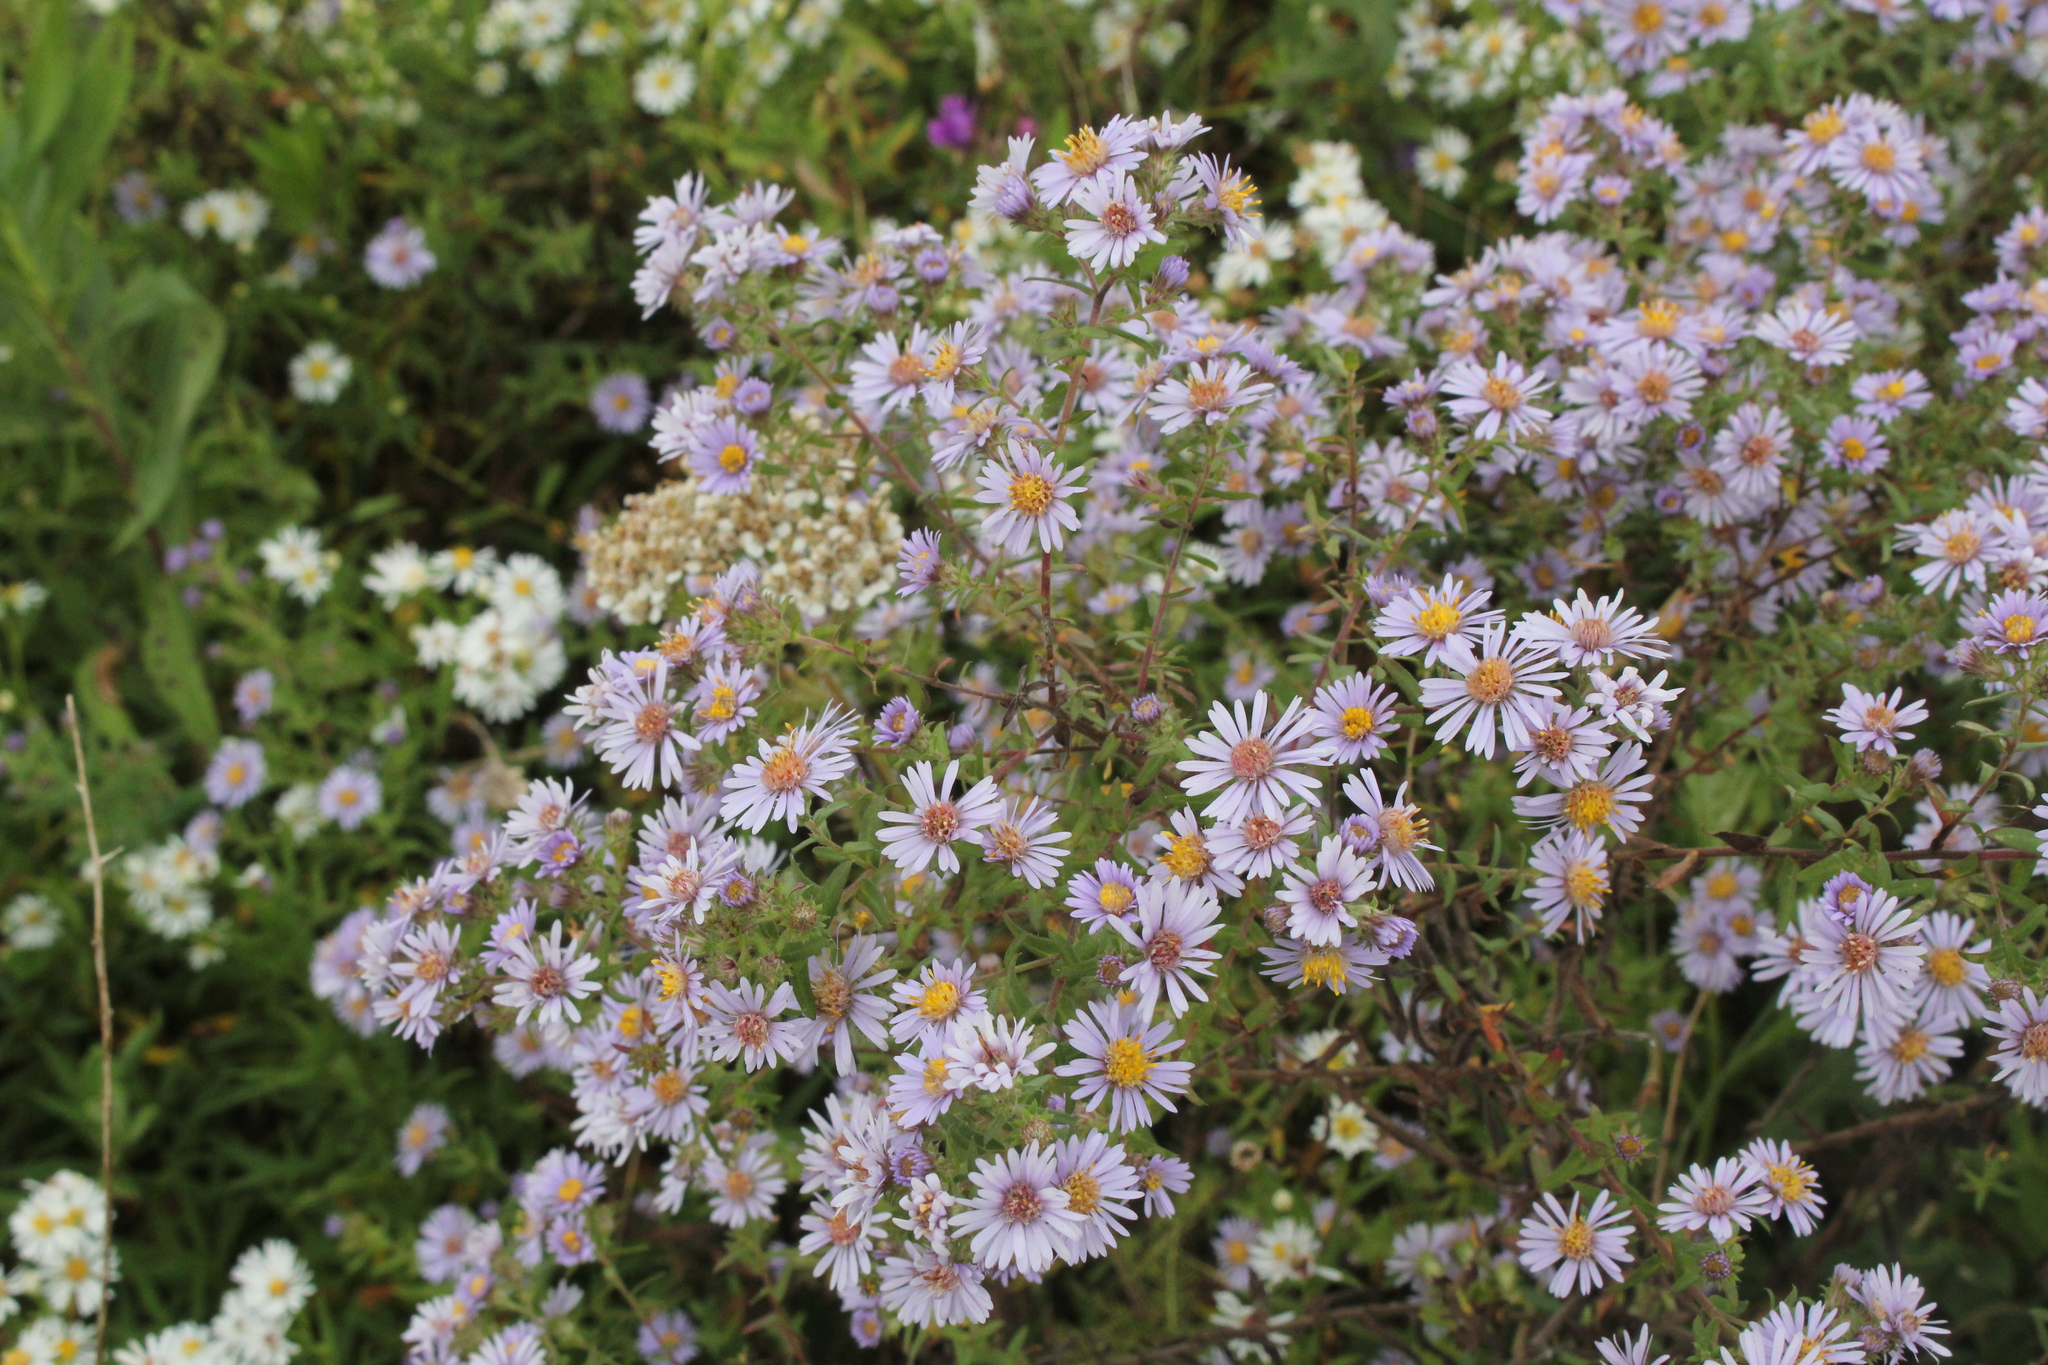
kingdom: Plantae
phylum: Tracheophyta
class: Magnoliopsida
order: Asterales
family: Asteraceae
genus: Symphyotrichum
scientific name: Symphyotrichum amethystinum
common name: Amethyst aster
